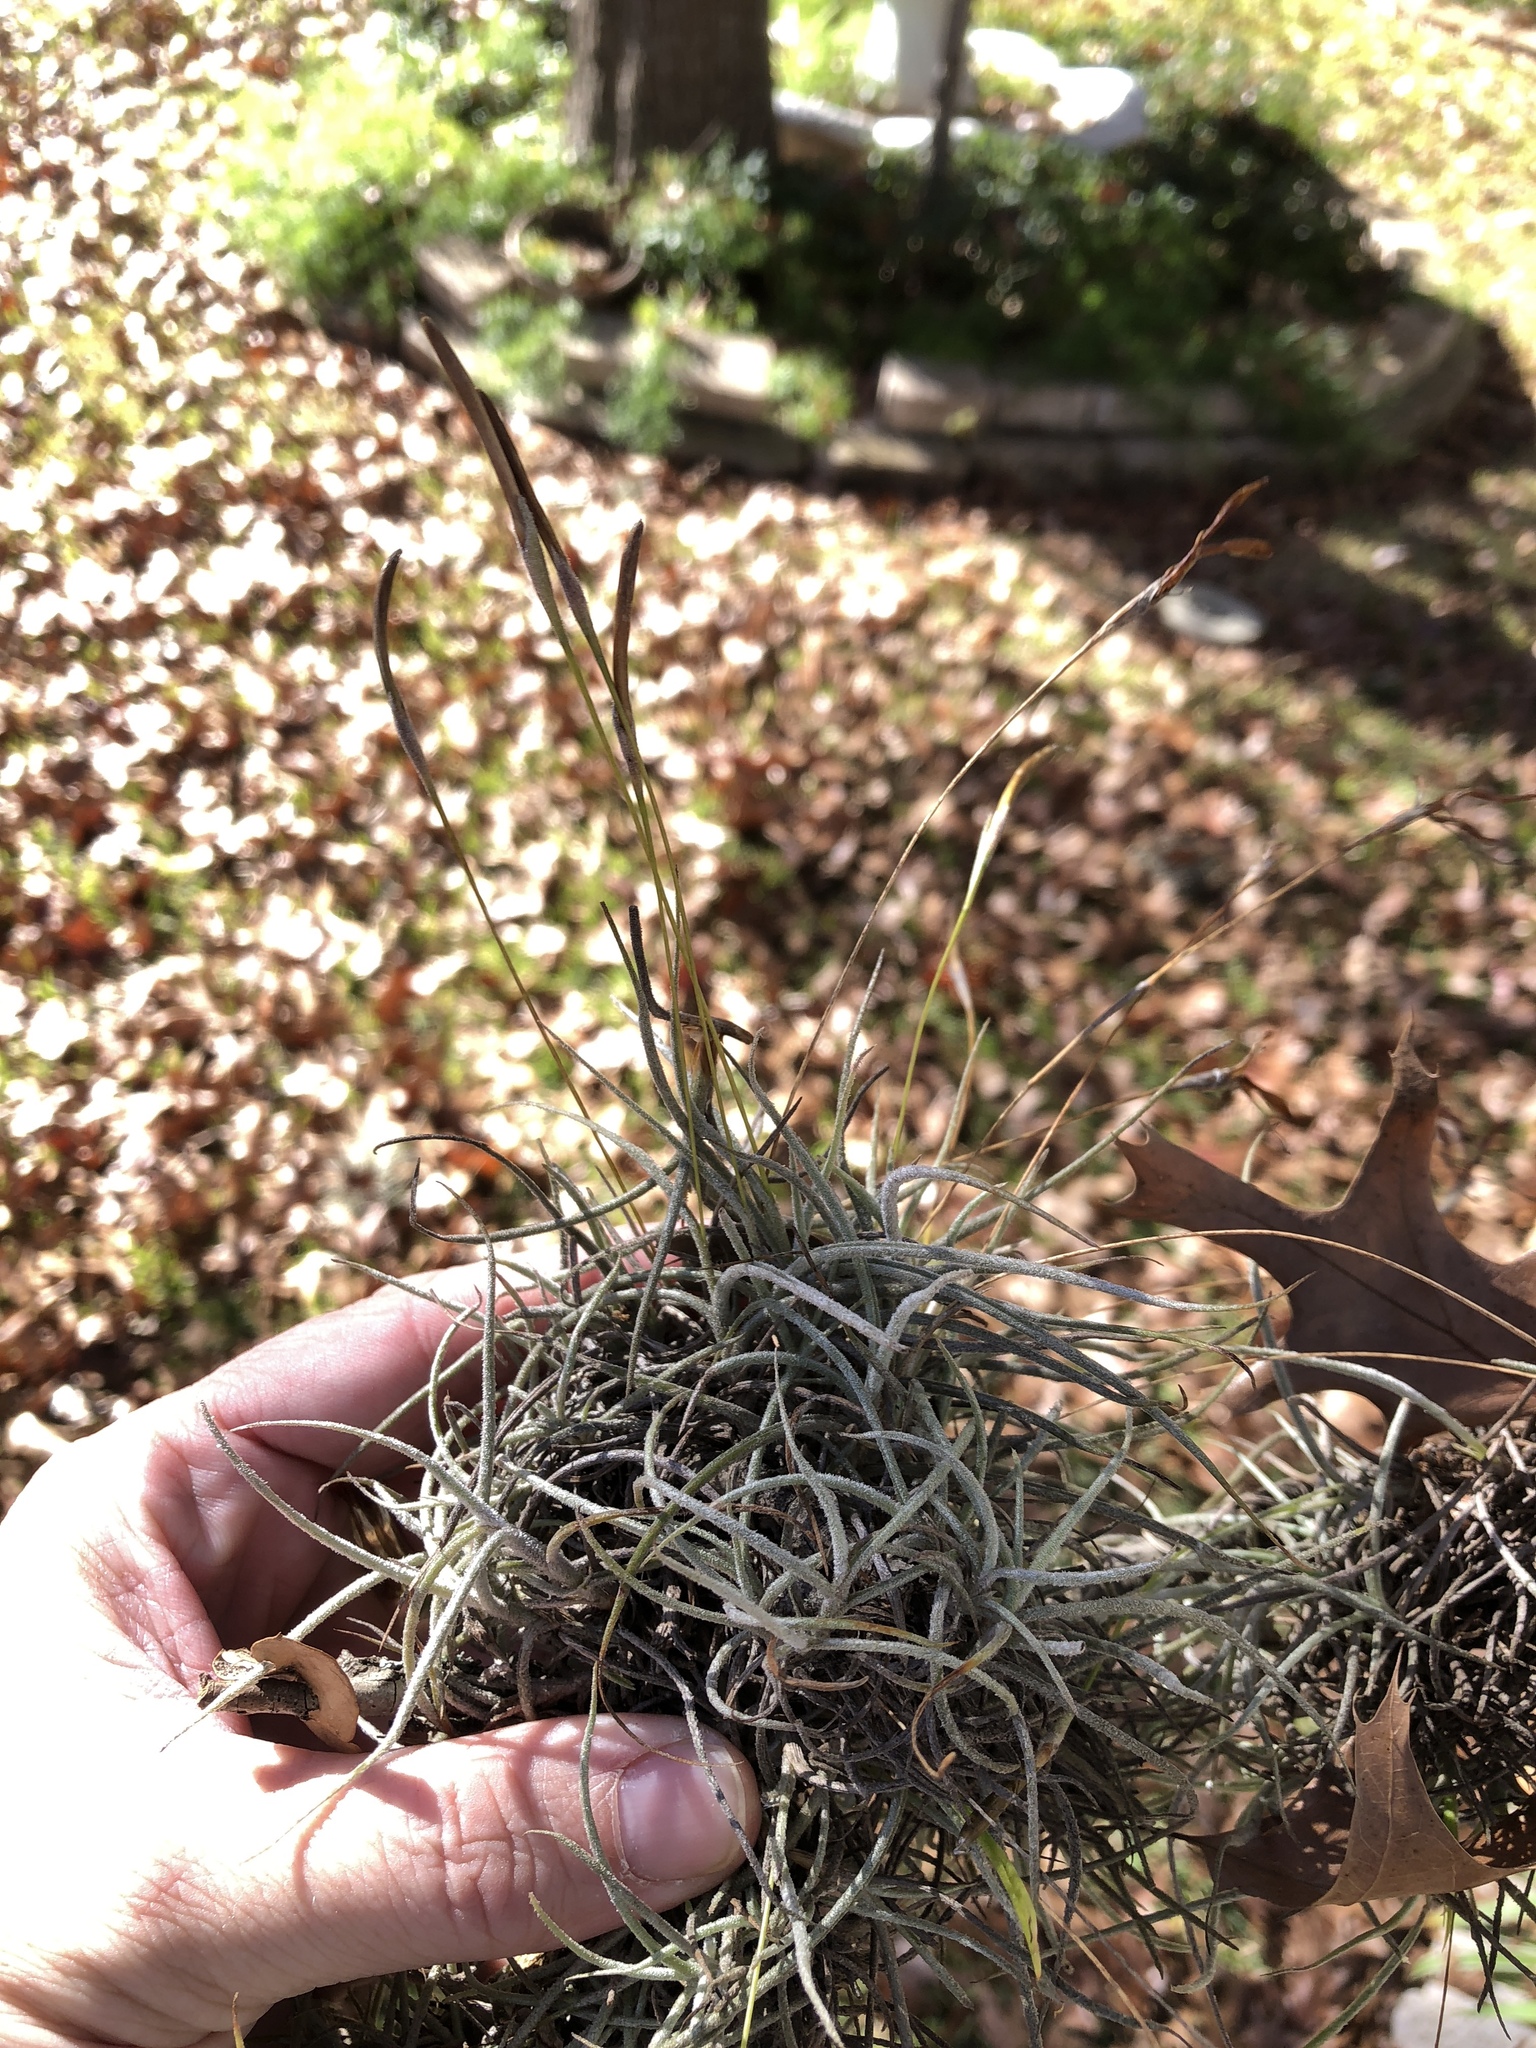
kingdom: Plantae
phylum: Tracheophyta
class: Liliopsida
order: Poales
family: Bromeliaceae
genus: Tillandsia
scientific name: Tillandsia recurvata
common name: Small ballmoss
